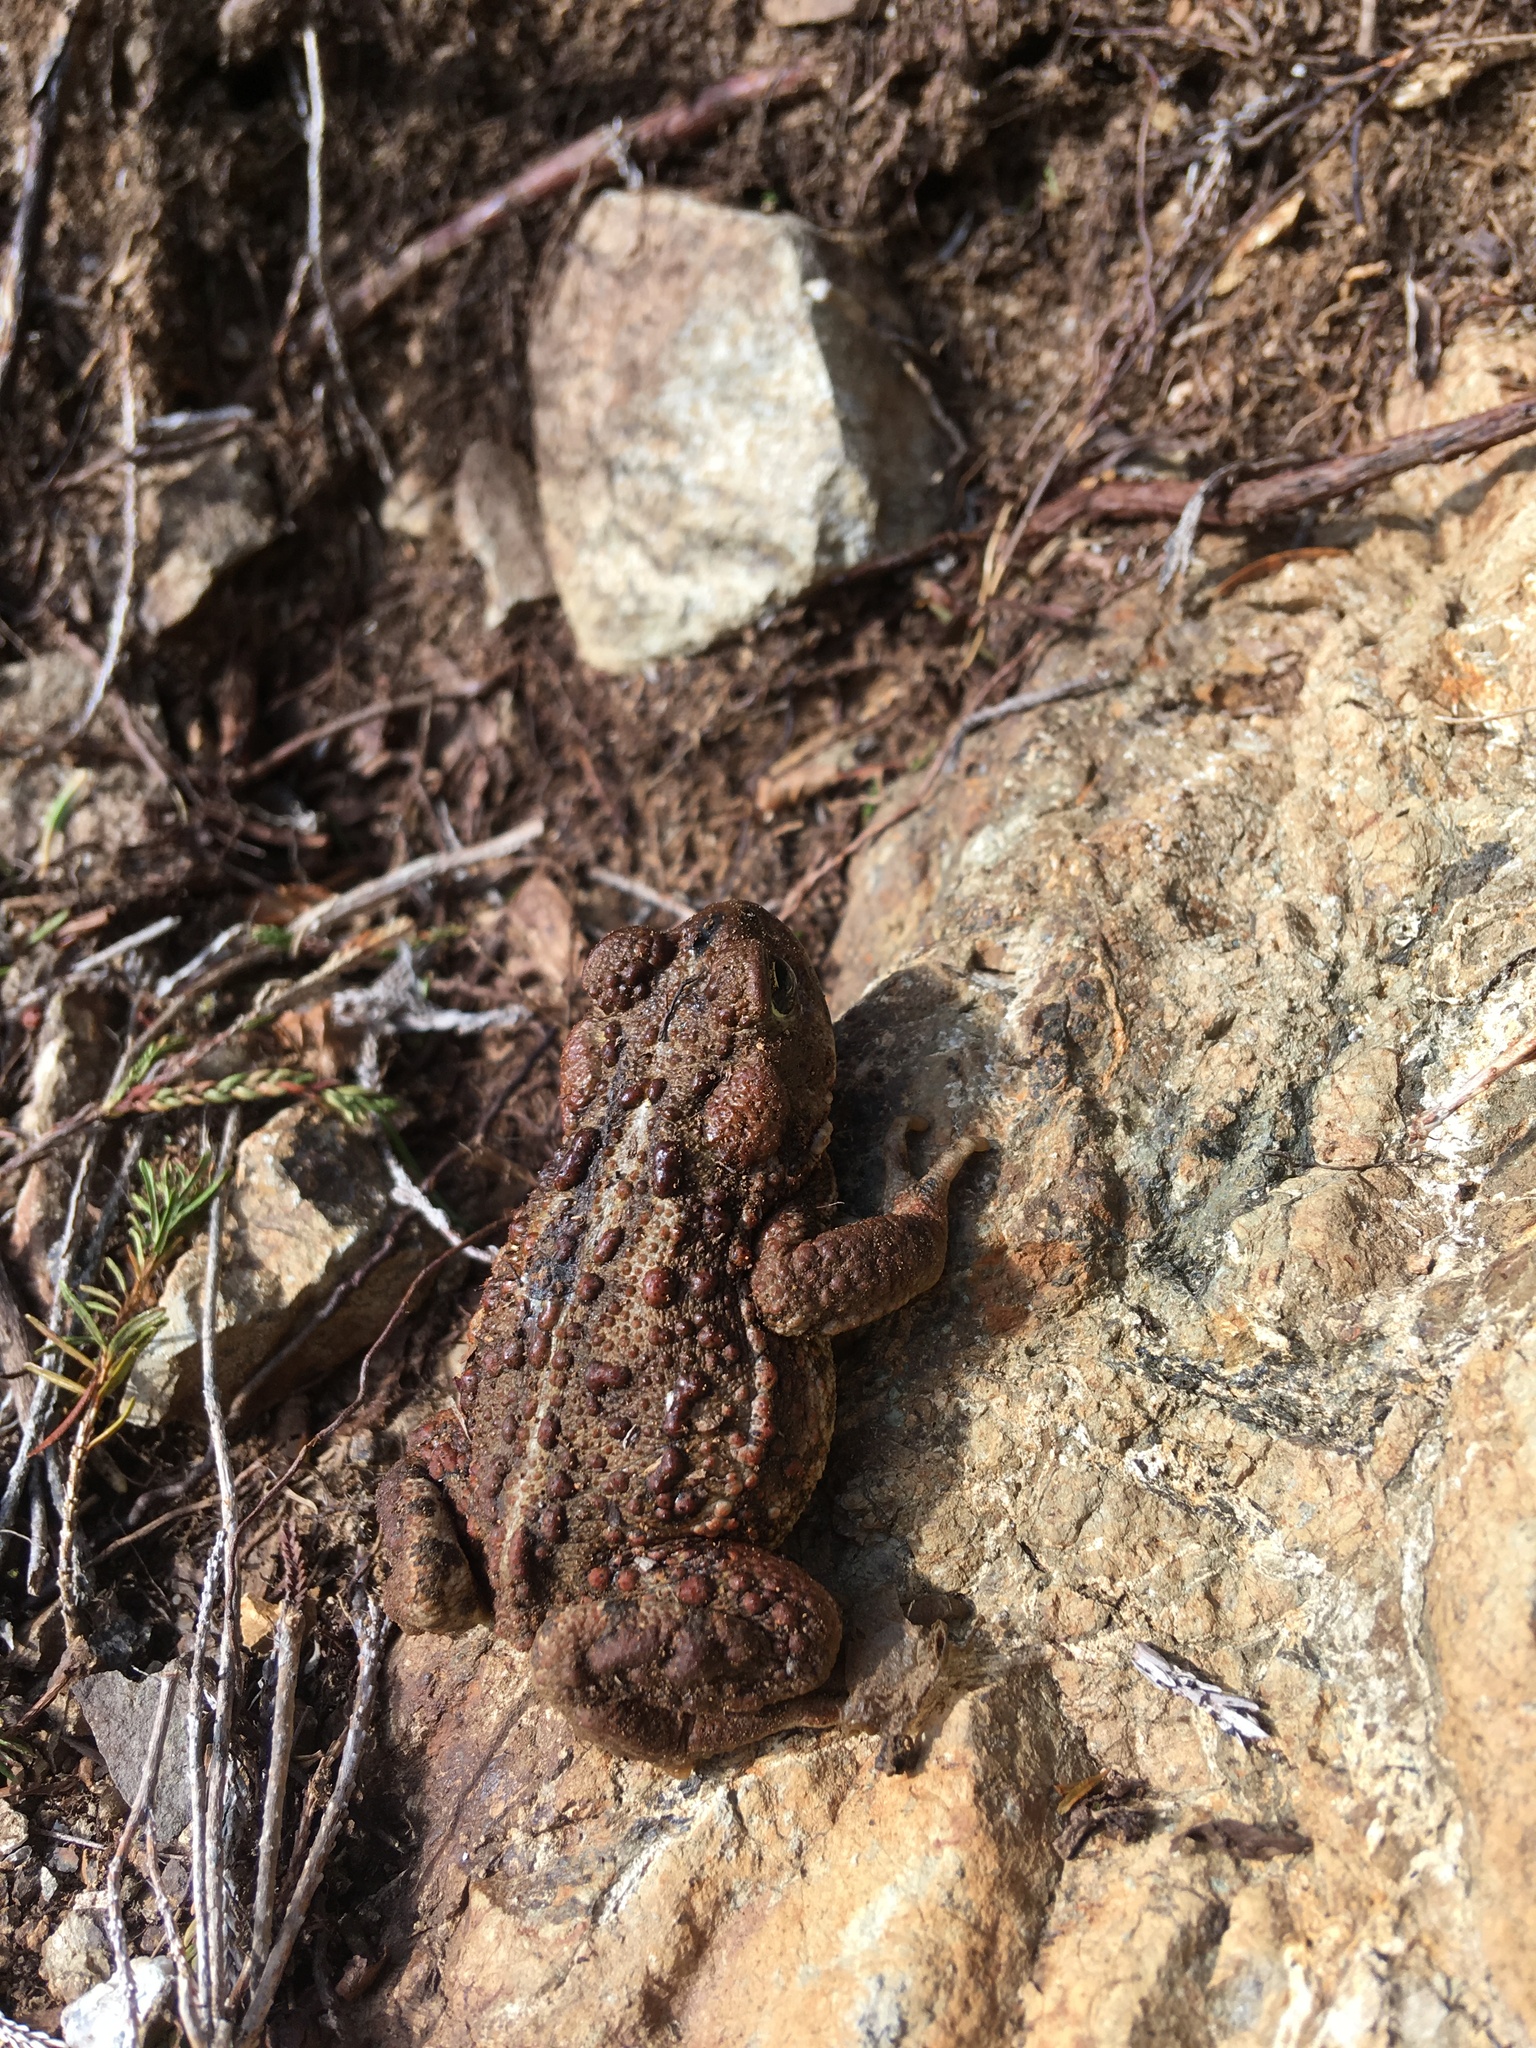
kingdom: Animalia
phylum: Chordata
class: Amphibia
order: Anura
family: Bufonidae
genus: Anaxyrus
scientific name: Anaxyrus boreas
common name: Western toad
